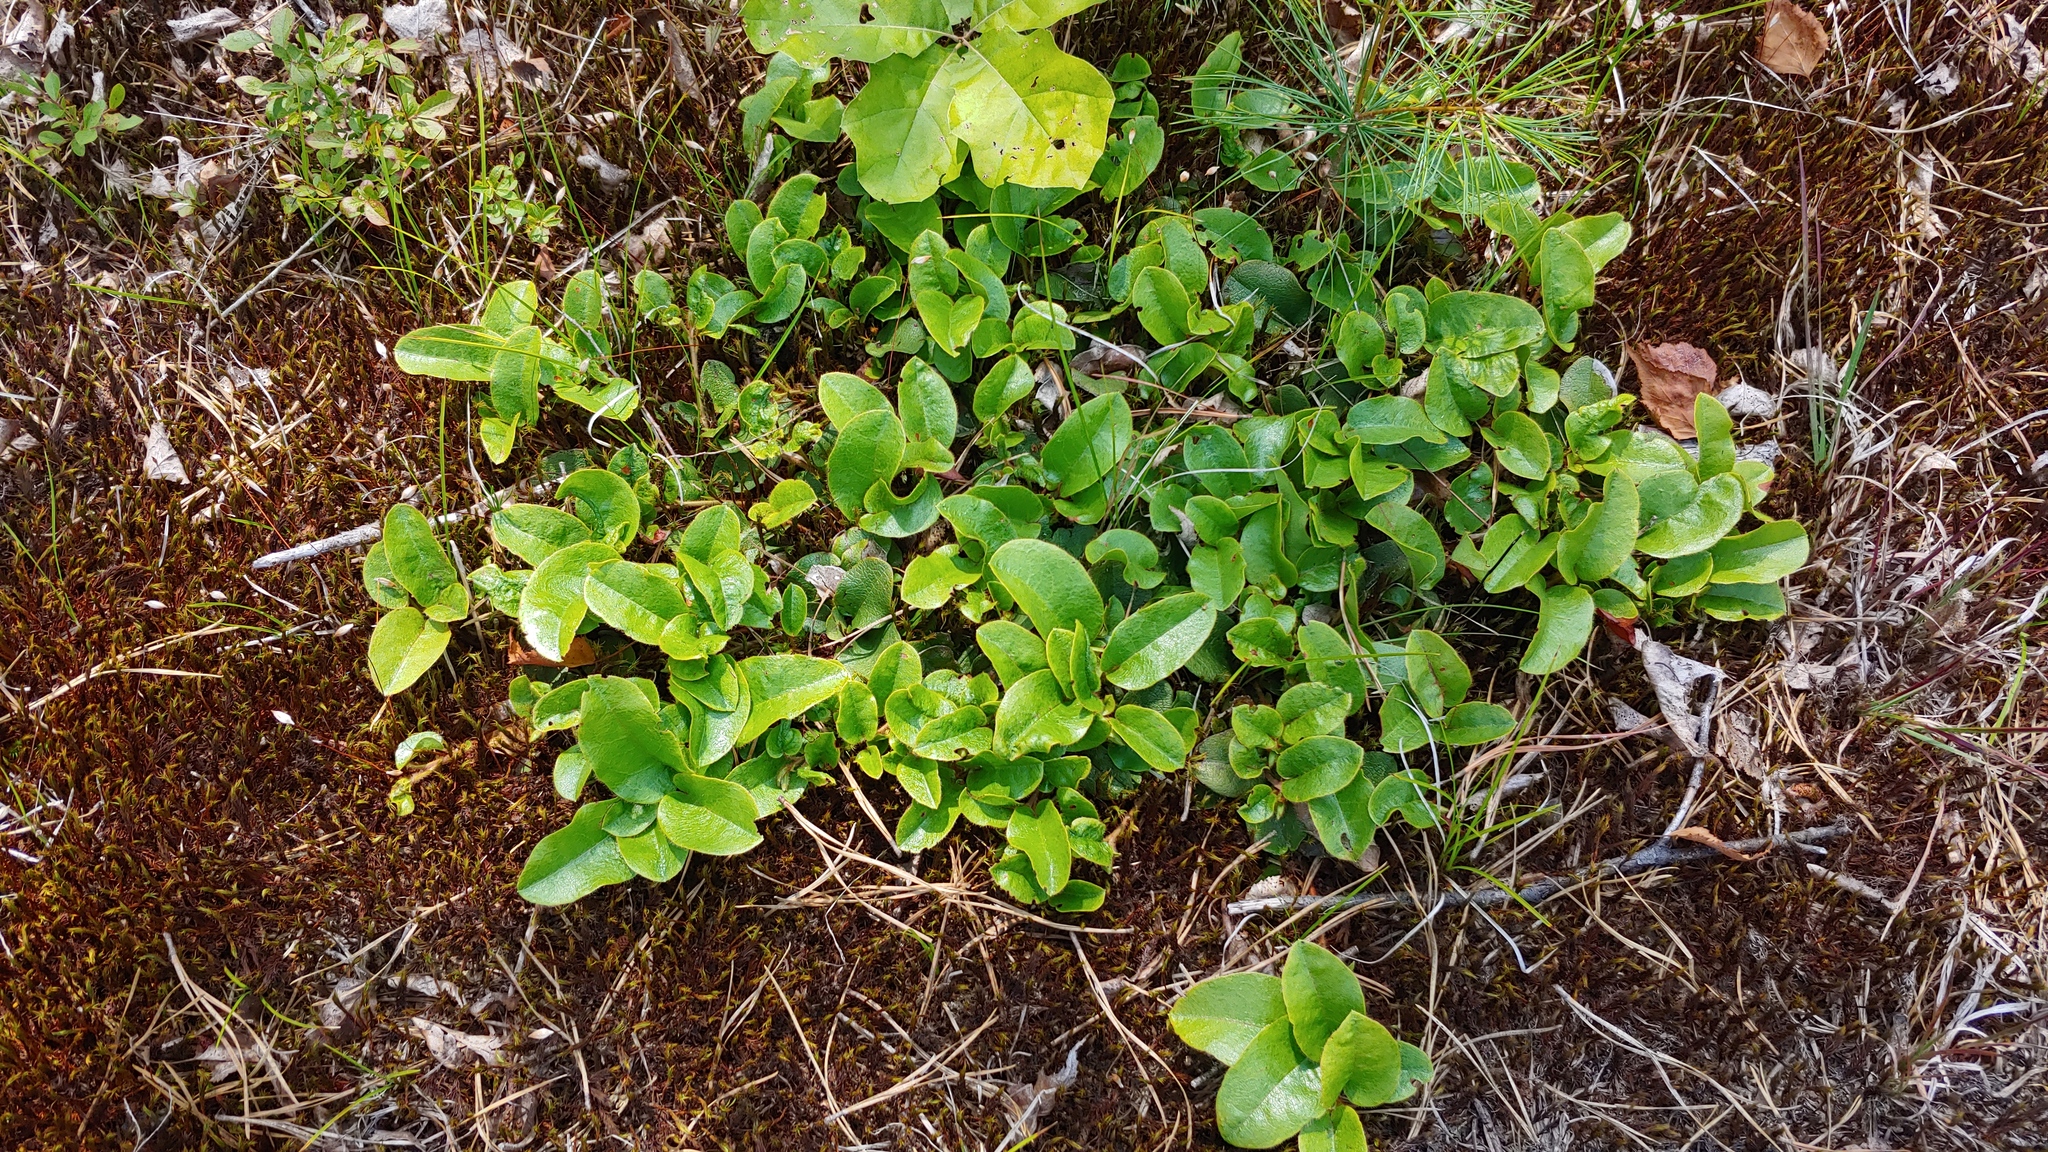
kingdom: Plantae
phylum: Tracheophyta
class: Magnoliopsida
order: Ericales
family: Ericaceae
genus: Epigaea
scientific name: Epigaea repens
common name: Gravelroot
